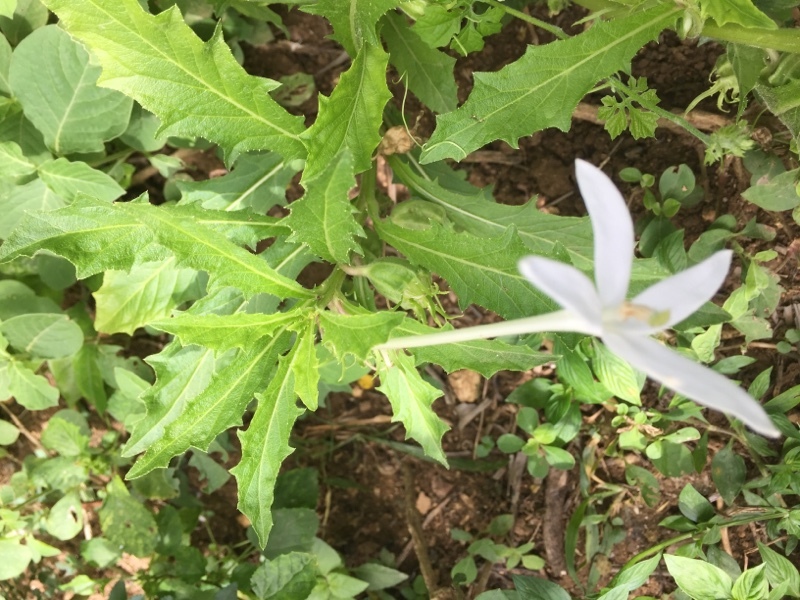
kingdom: Plantae
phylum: Tracheophyta
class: Magnoliopsida
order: Asterales
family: Campanulaceae
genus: Hippobroma
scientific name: Hippobroma longiflora
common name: Madamfate
